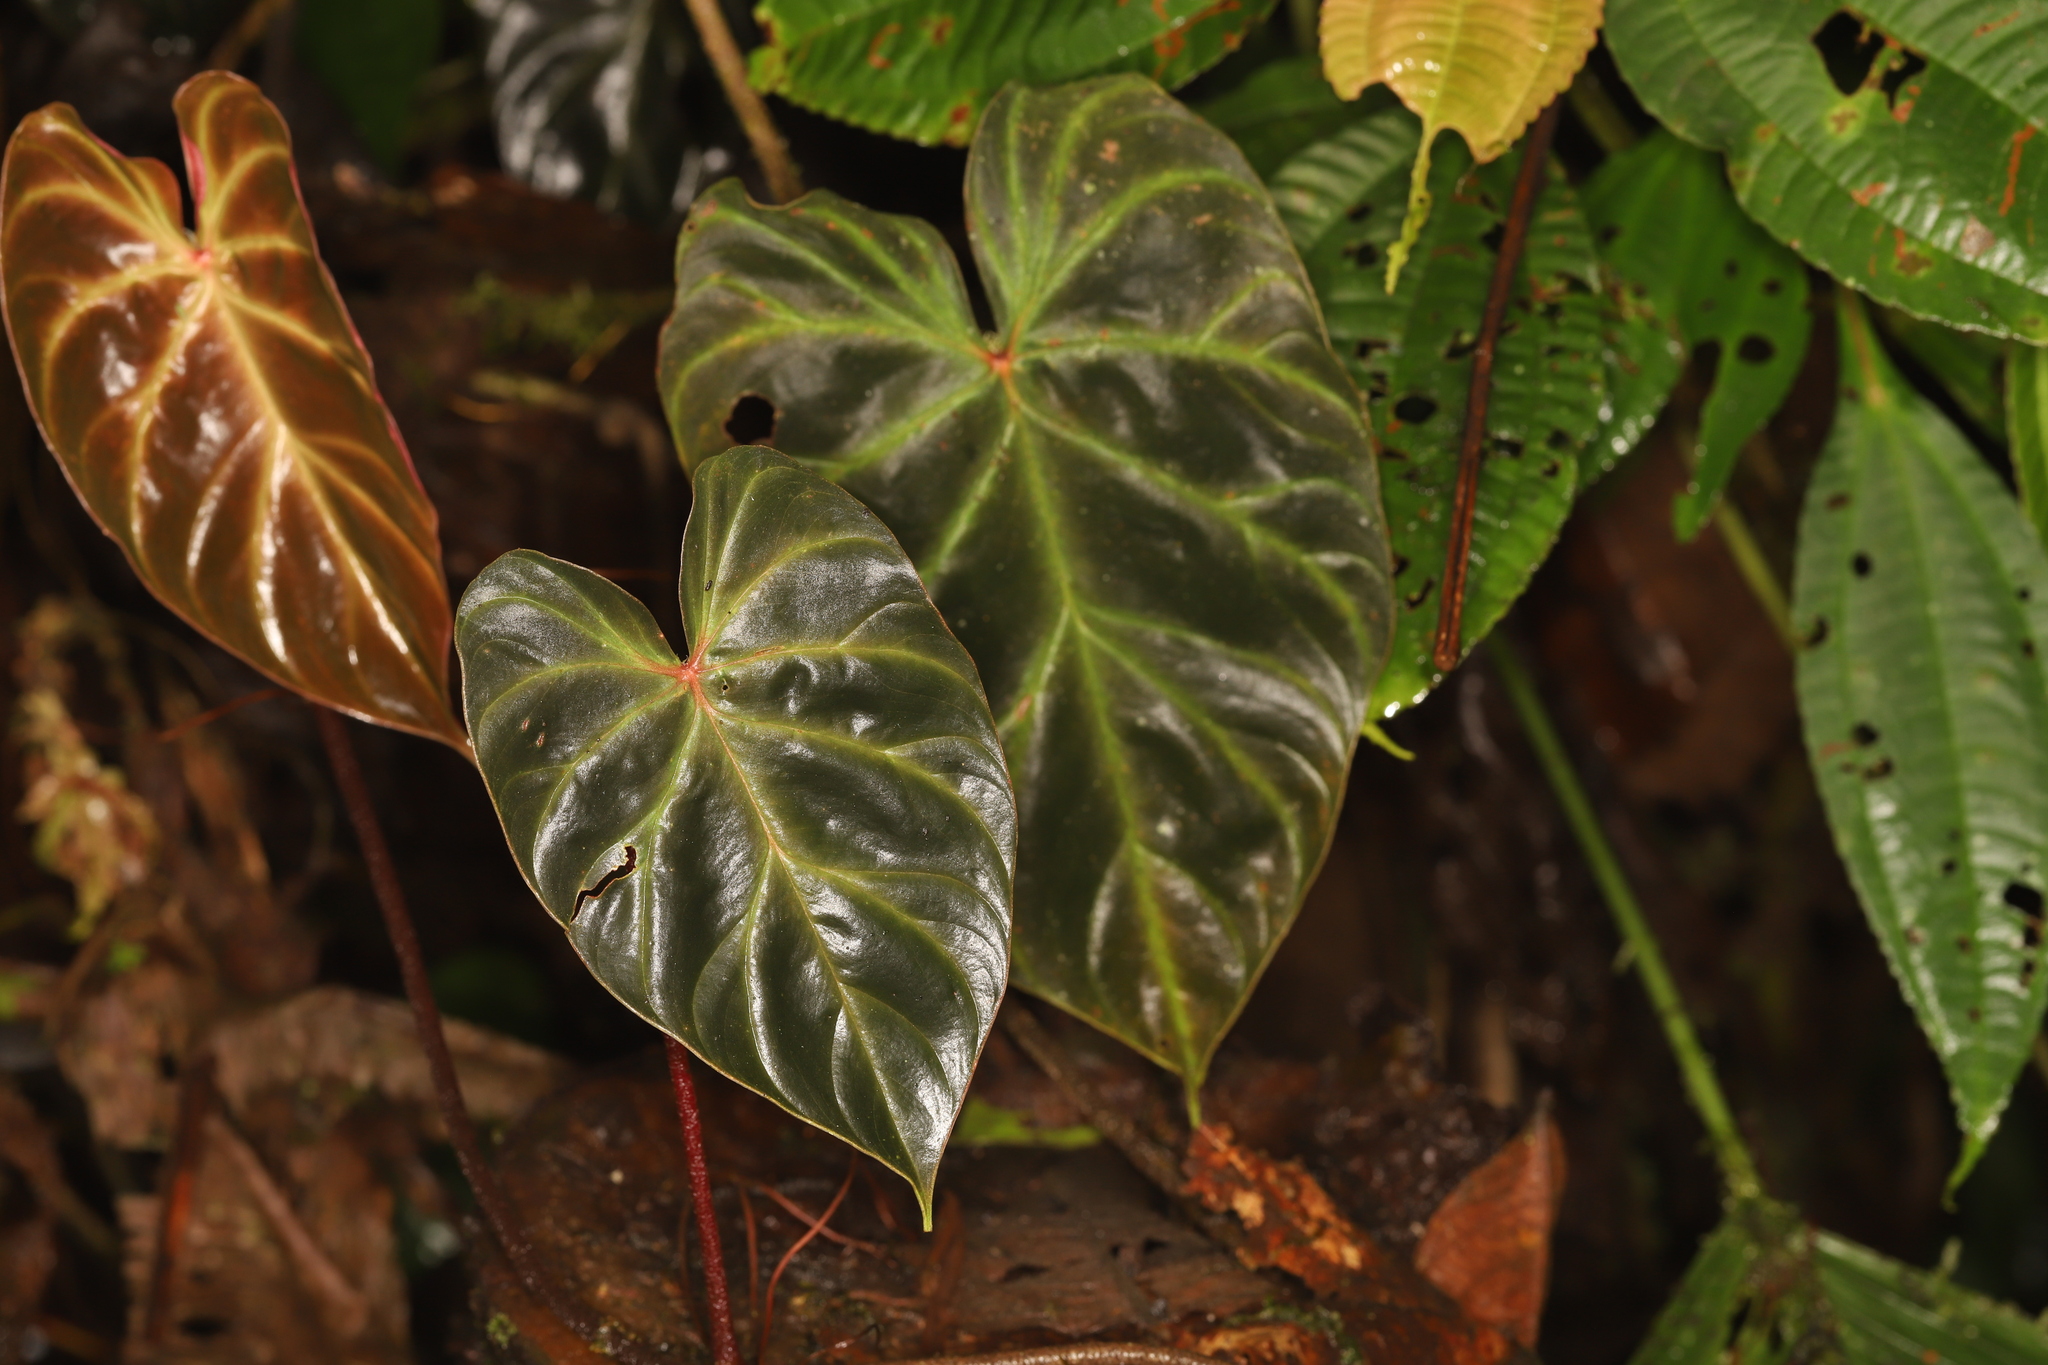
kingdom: Plantae
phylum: Tracheophyta
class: Liliopsida
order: Alismatales
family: Araceae
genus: Philodendron
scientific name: Philodendron verrucosum
